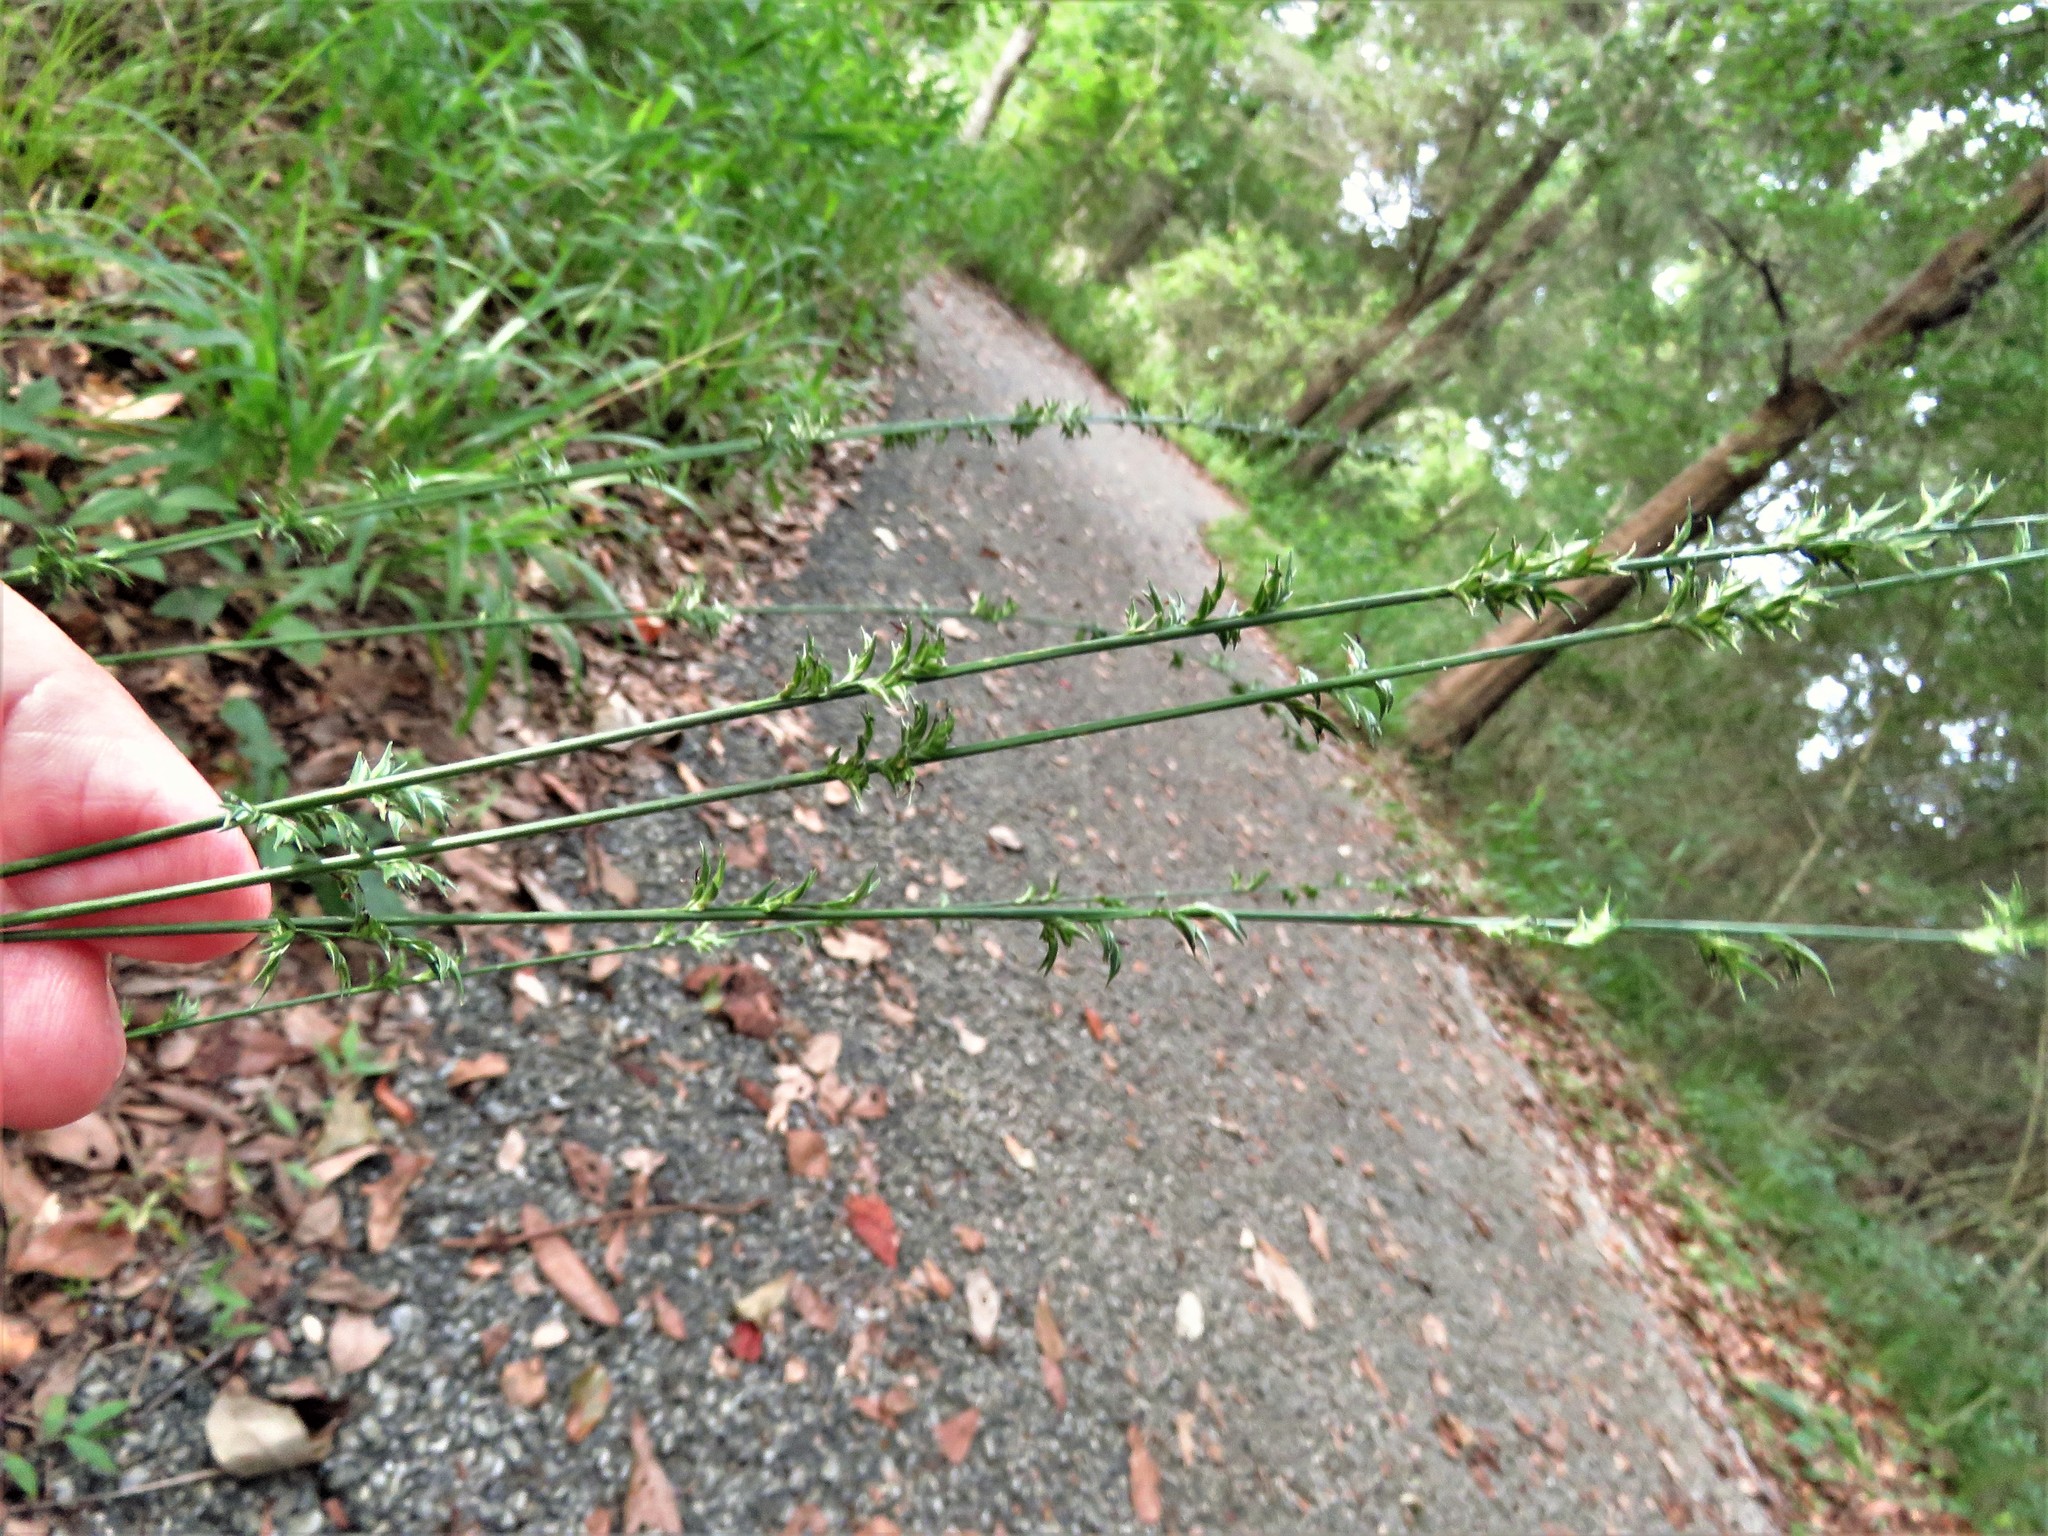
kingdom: Plantae
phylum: Tracheophyta
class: Liliopsida
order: Poales
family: Poaceae
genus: Chasmanthium
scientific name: Chasmanthium laxum
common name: Slender chasmanthium
